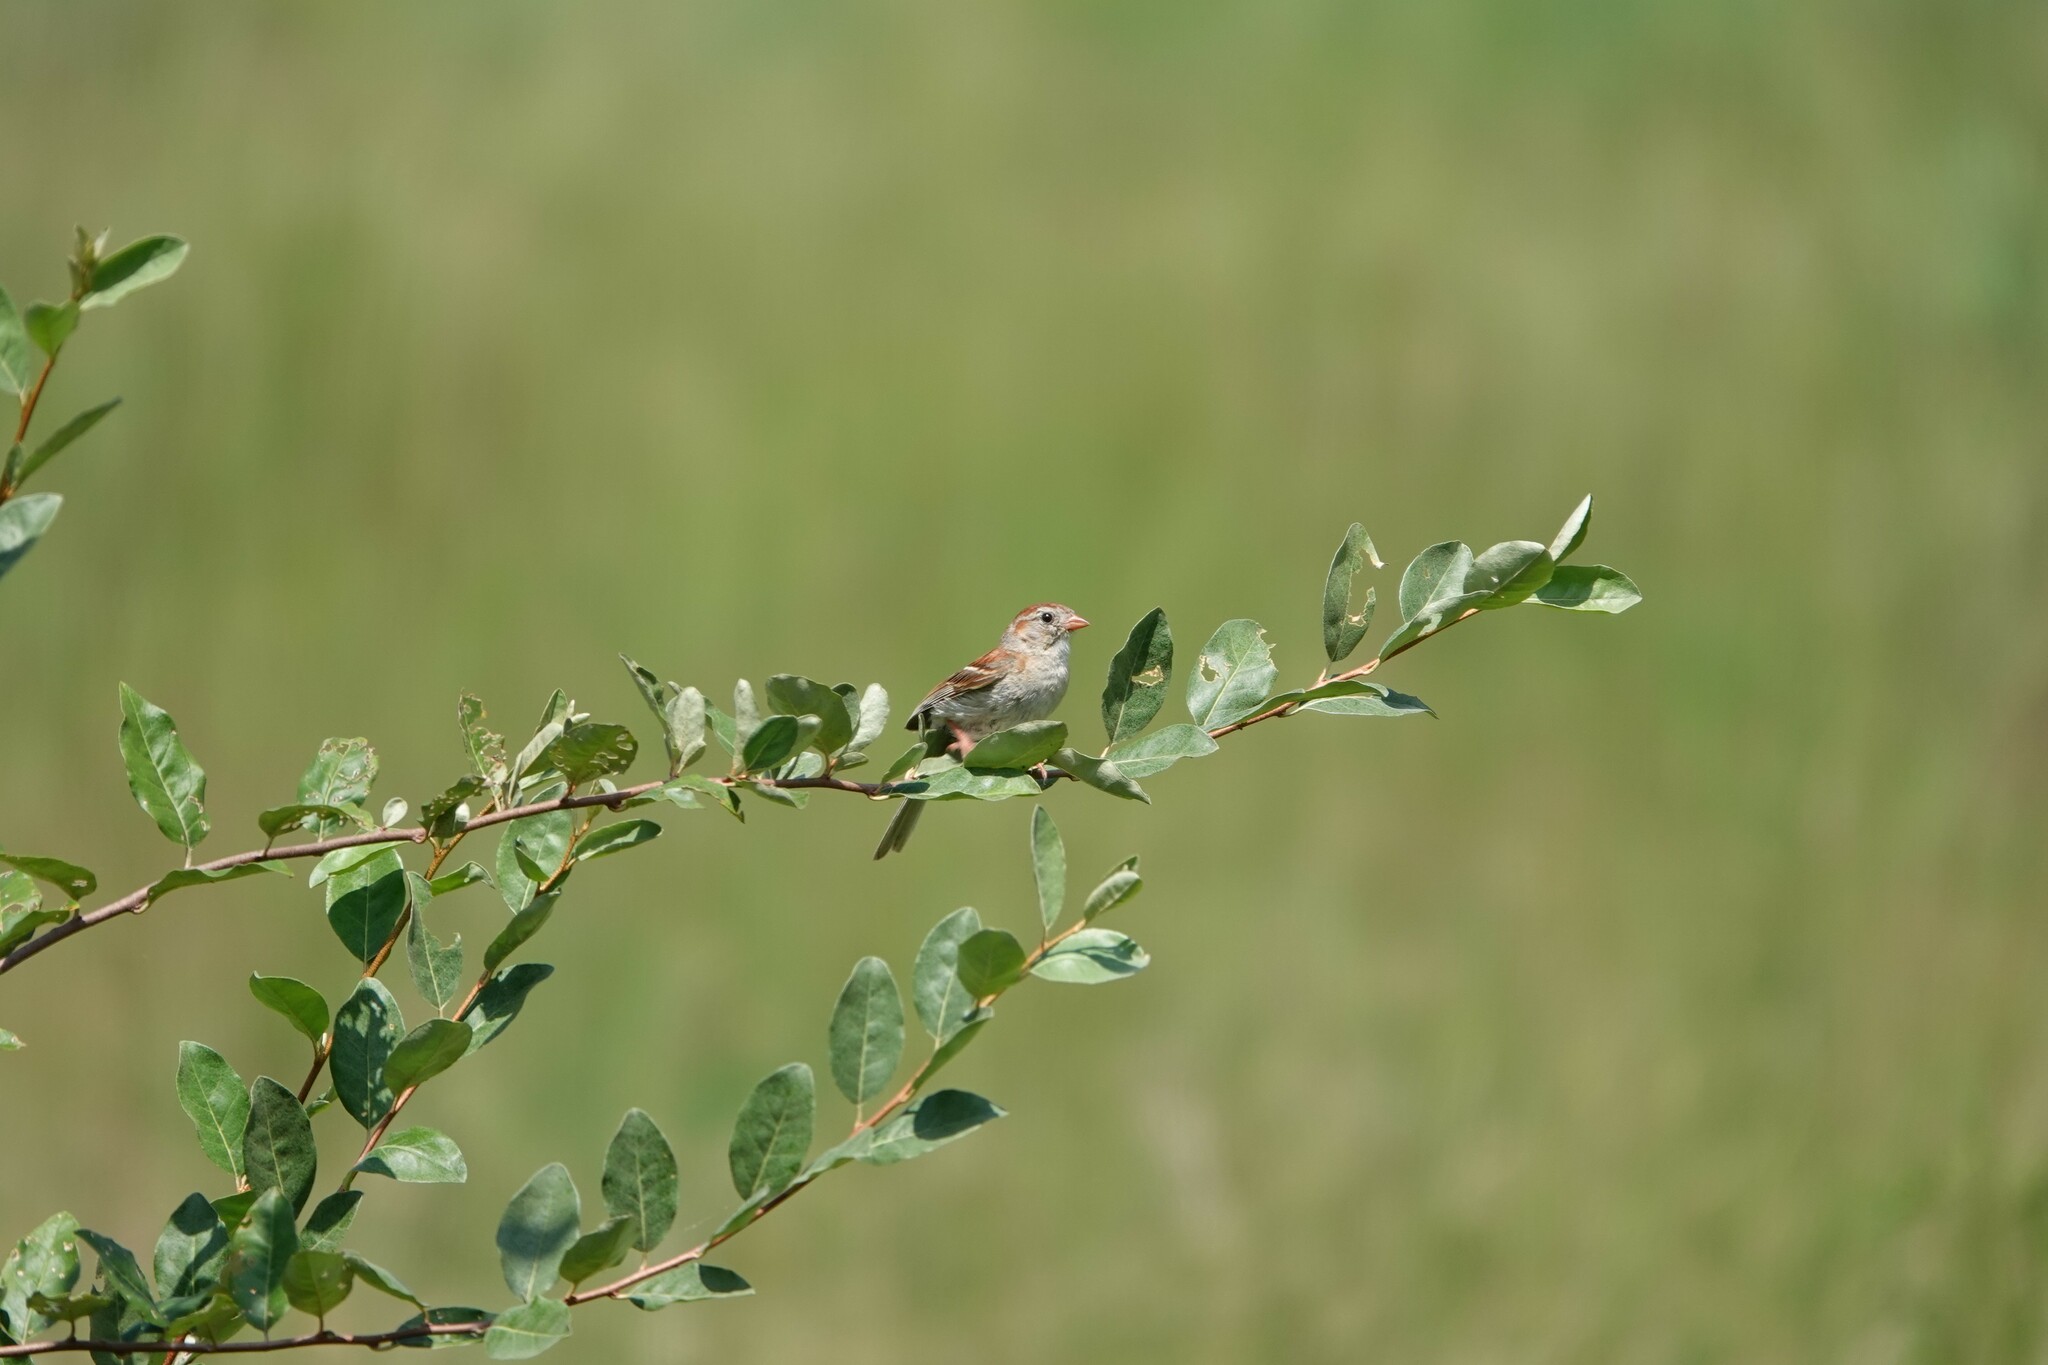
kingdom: Animalia
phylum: Chordata
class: Aves
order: Passeriformes
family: Passerellidae
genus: Spizella
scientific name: Spizella pusilla
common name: Field sparrow
